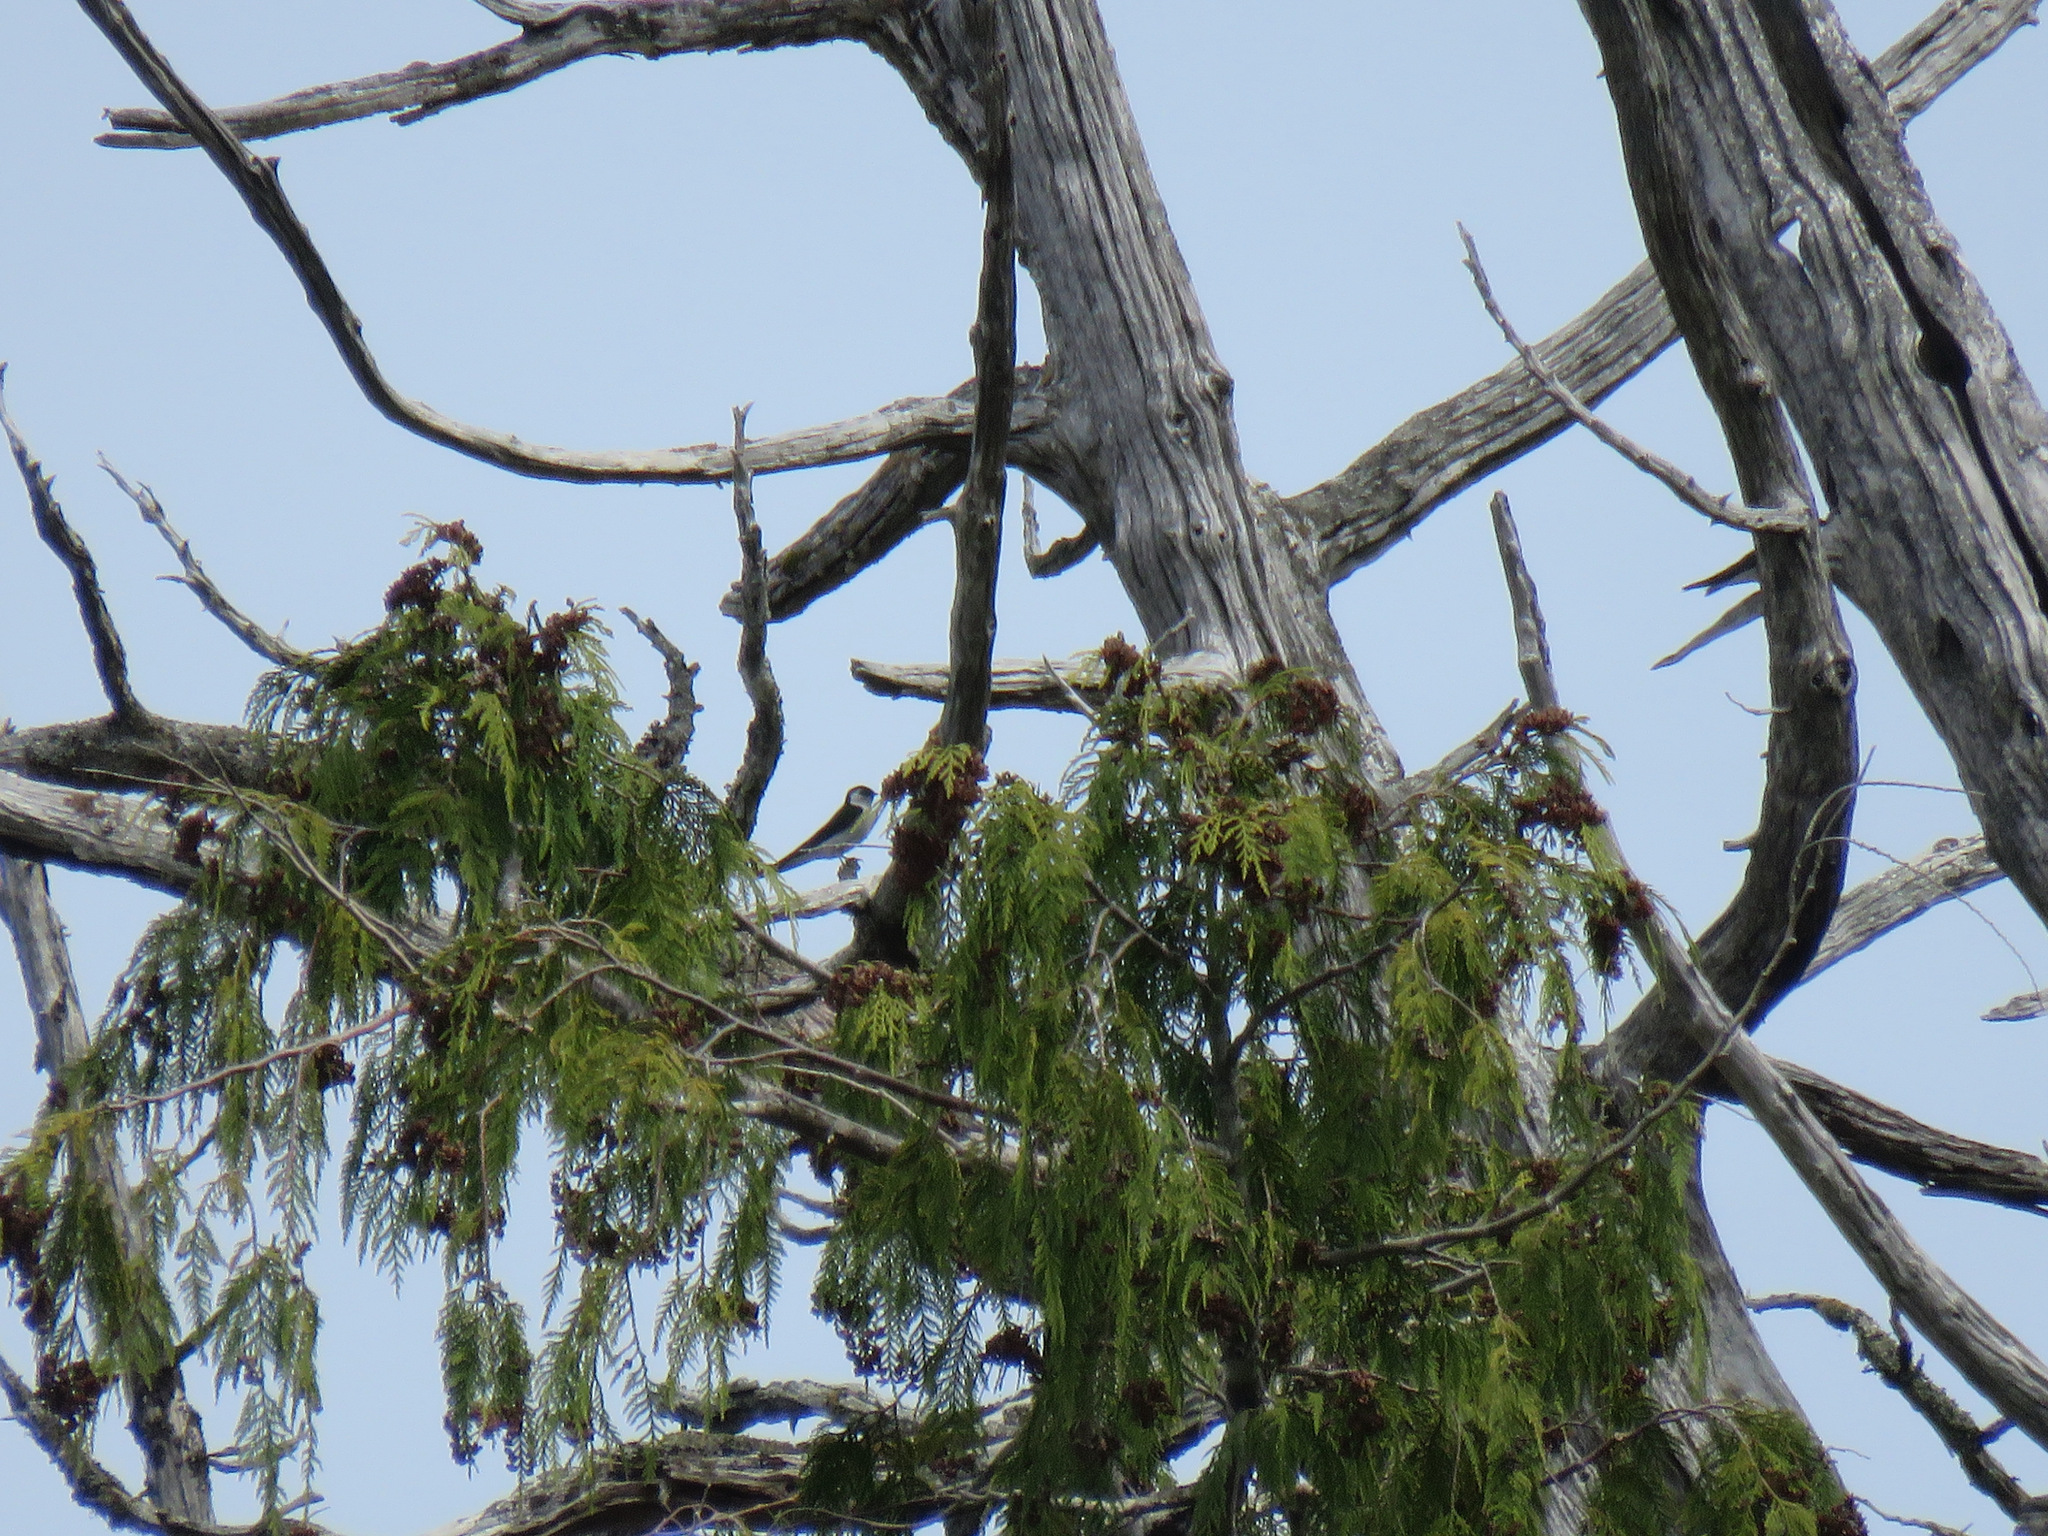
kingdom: Animalia
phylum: Chordata
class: Aves
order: Passeriformes
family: Hirundinidae
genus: Tachycineta
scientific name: Tachycineta thalassina
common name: Violet-green swallow
